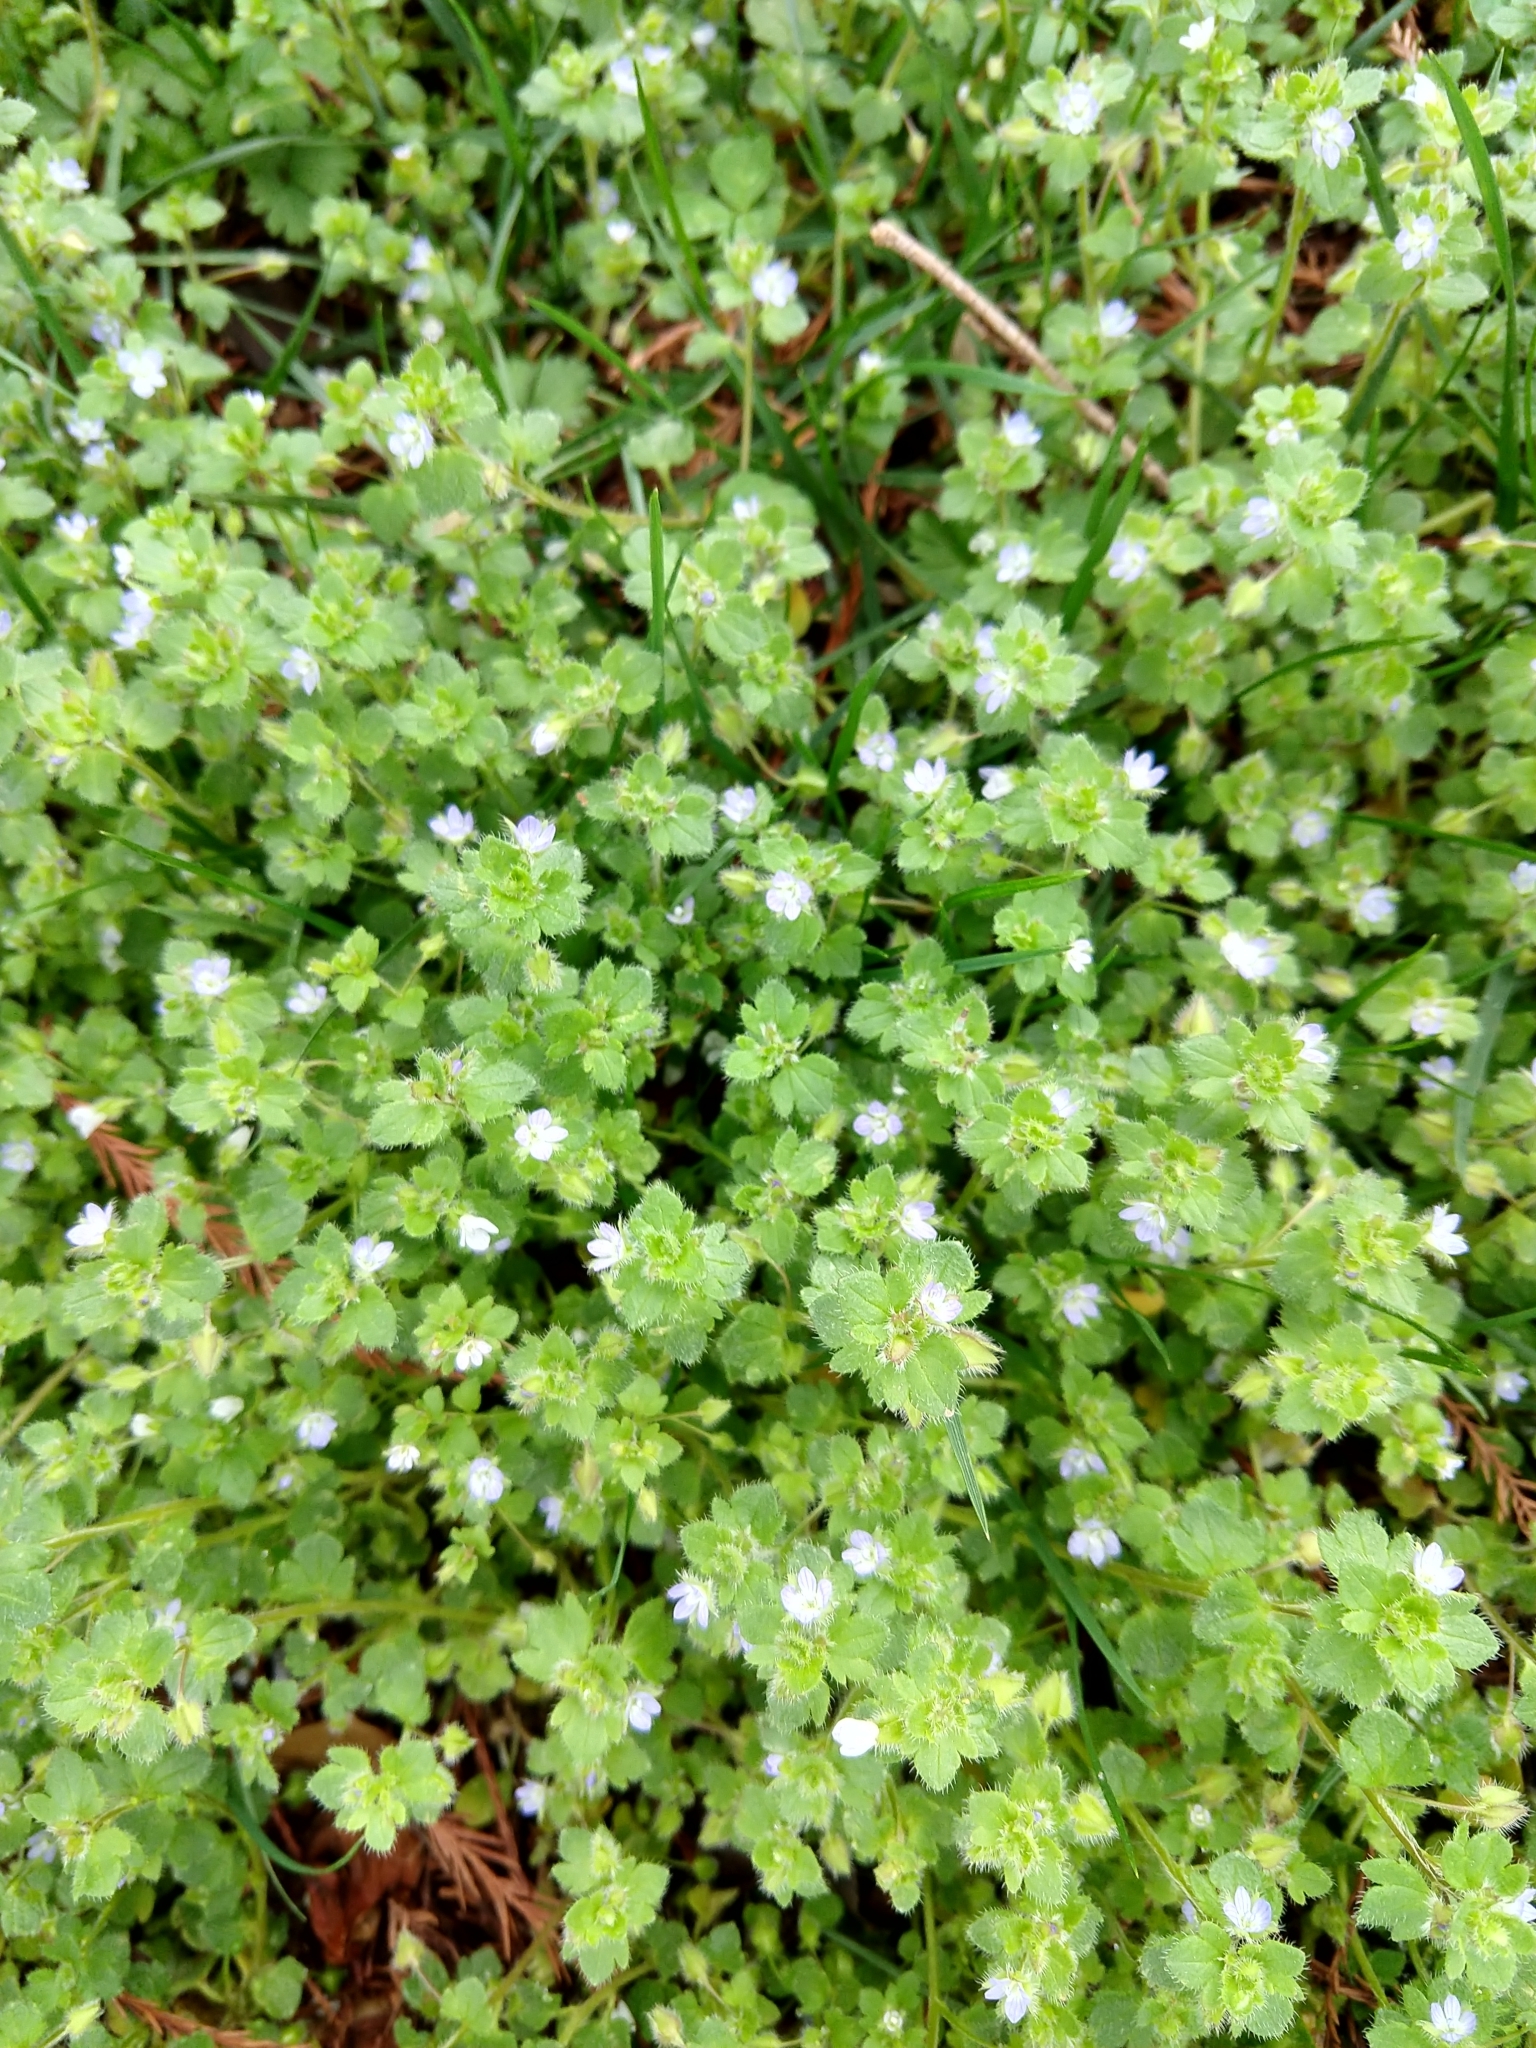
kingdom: Plantae
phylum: Tracheophyta
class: Magnoliopsida
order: Lamiales
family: Plantaginaceae
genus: Veronica
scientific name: Veronica hederifolia
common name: Ivy-leaved speedwell
